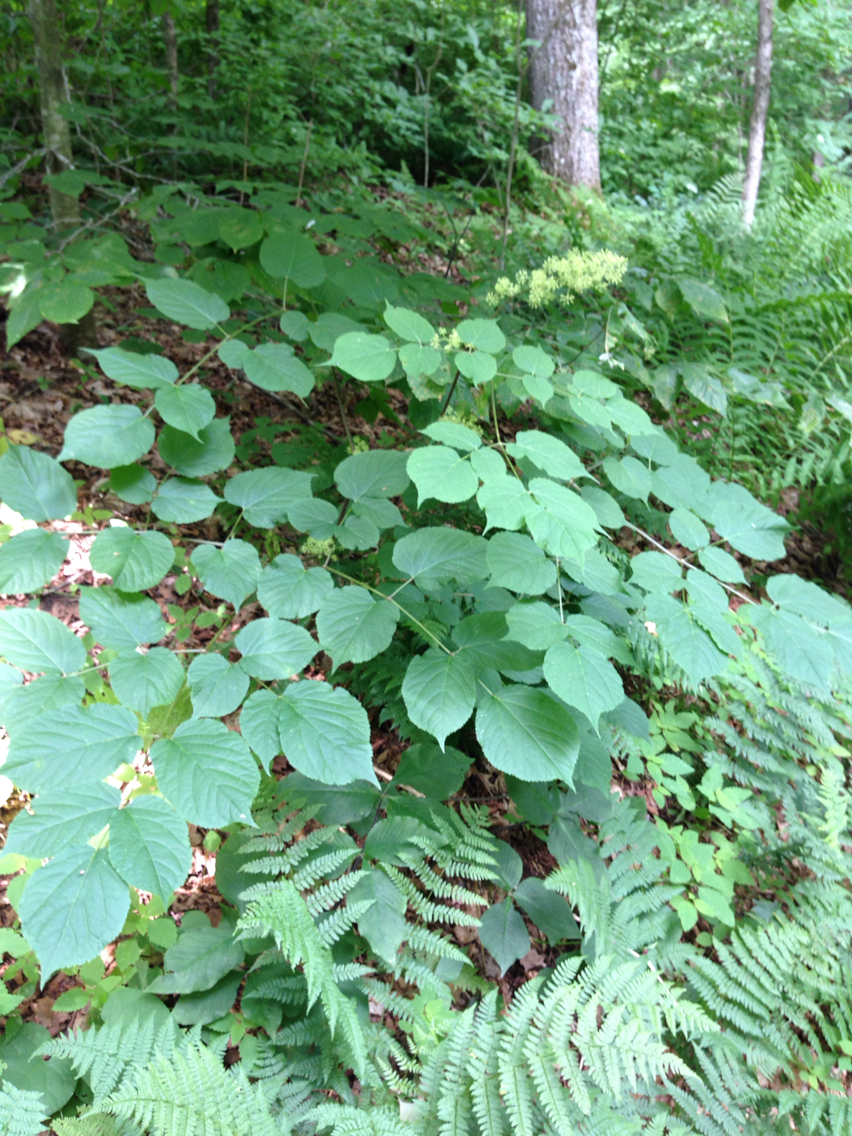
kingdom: Plantae
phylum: Tracheophyta
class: Magnoliopsida
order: Apiales
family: Araliaceae
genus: Aralia
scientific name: Aralia racemosa
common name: American-spikenard
